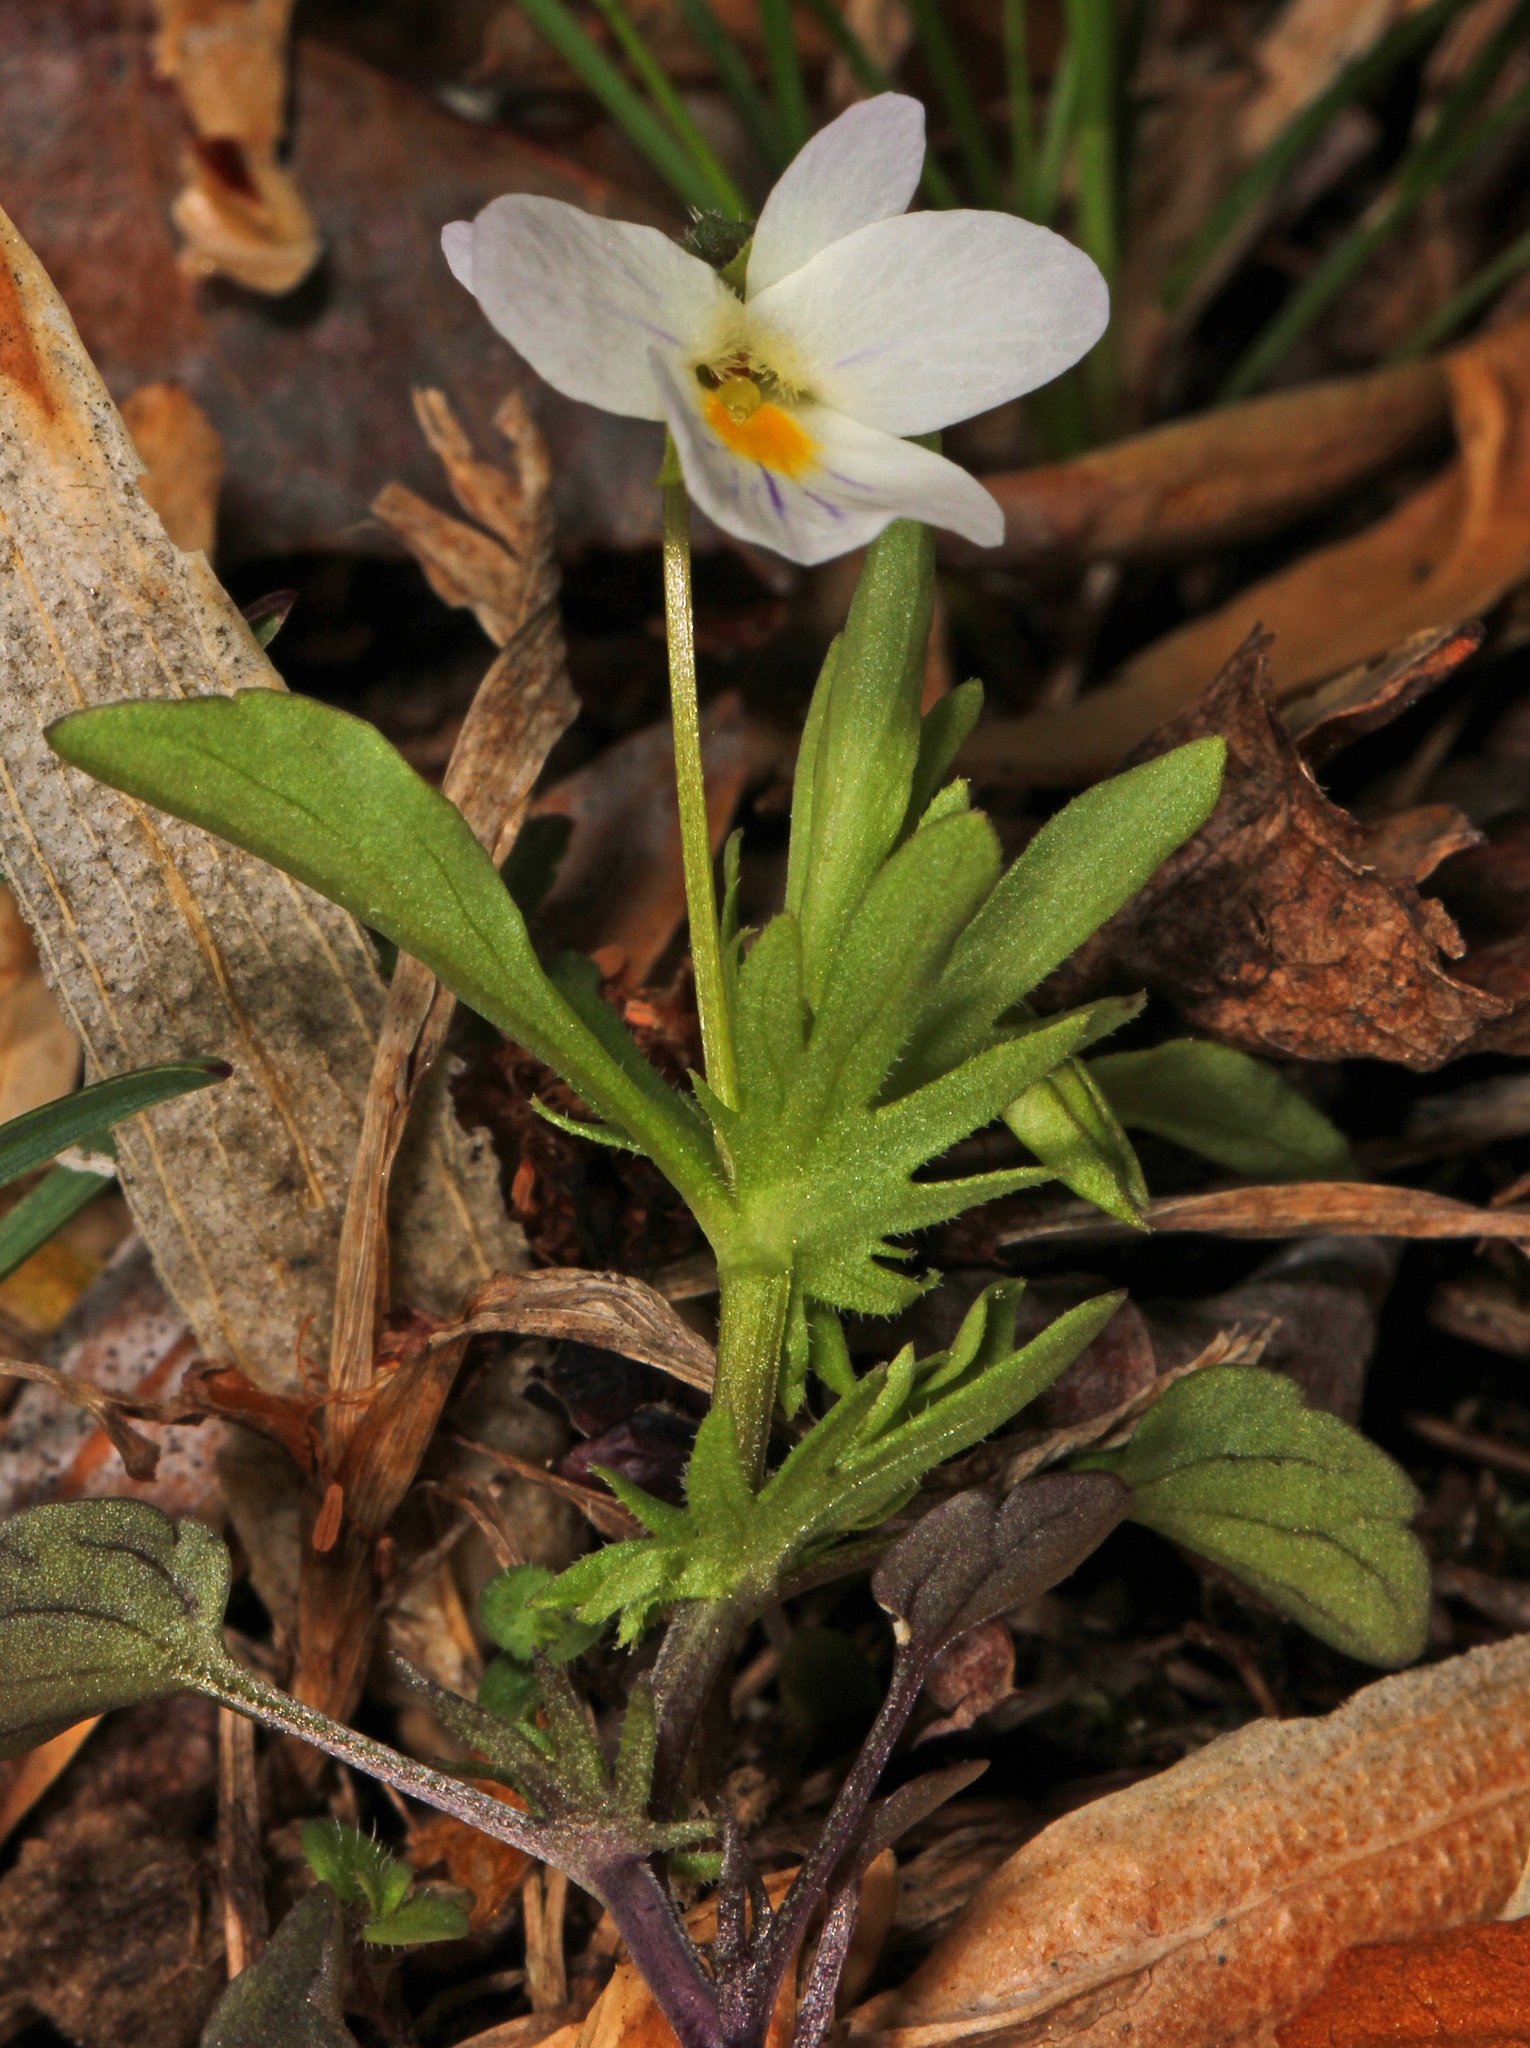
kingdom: Plantae
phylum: Tracheophyta
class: Magnoliopsida
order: Malpighiales
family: Violaceae
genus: Viola
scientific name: Viola rafinesquei
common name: American field pansy
